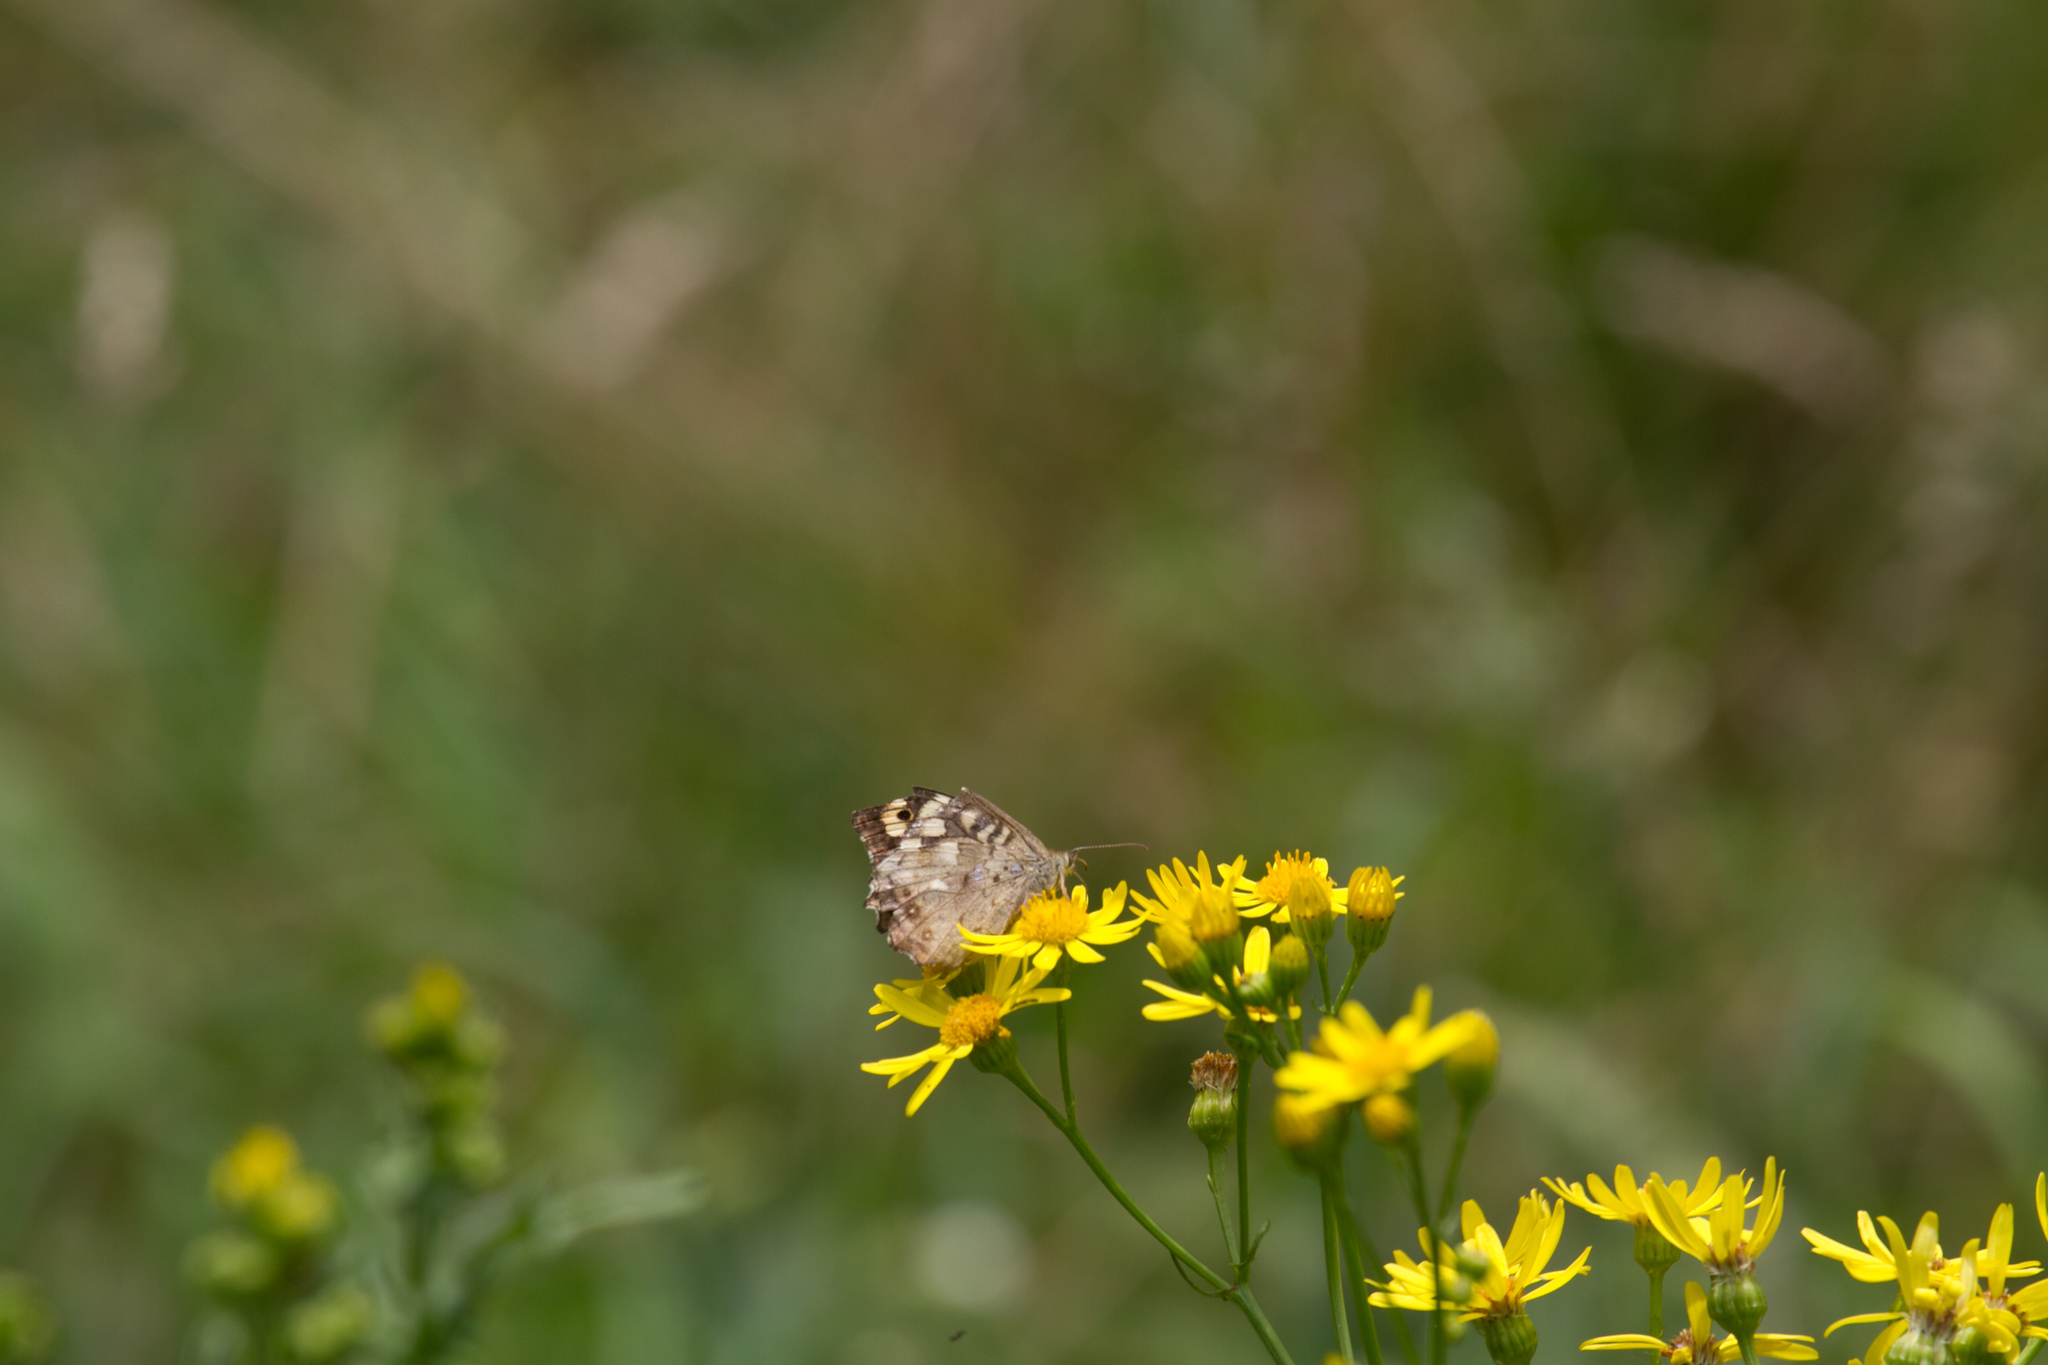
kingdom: Animalia
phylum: Arthropoda
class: Insecta
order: Lepidoptera
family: Nymphalidae
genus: Pararge
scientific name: Pararge aegeria
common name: Speckled wood
